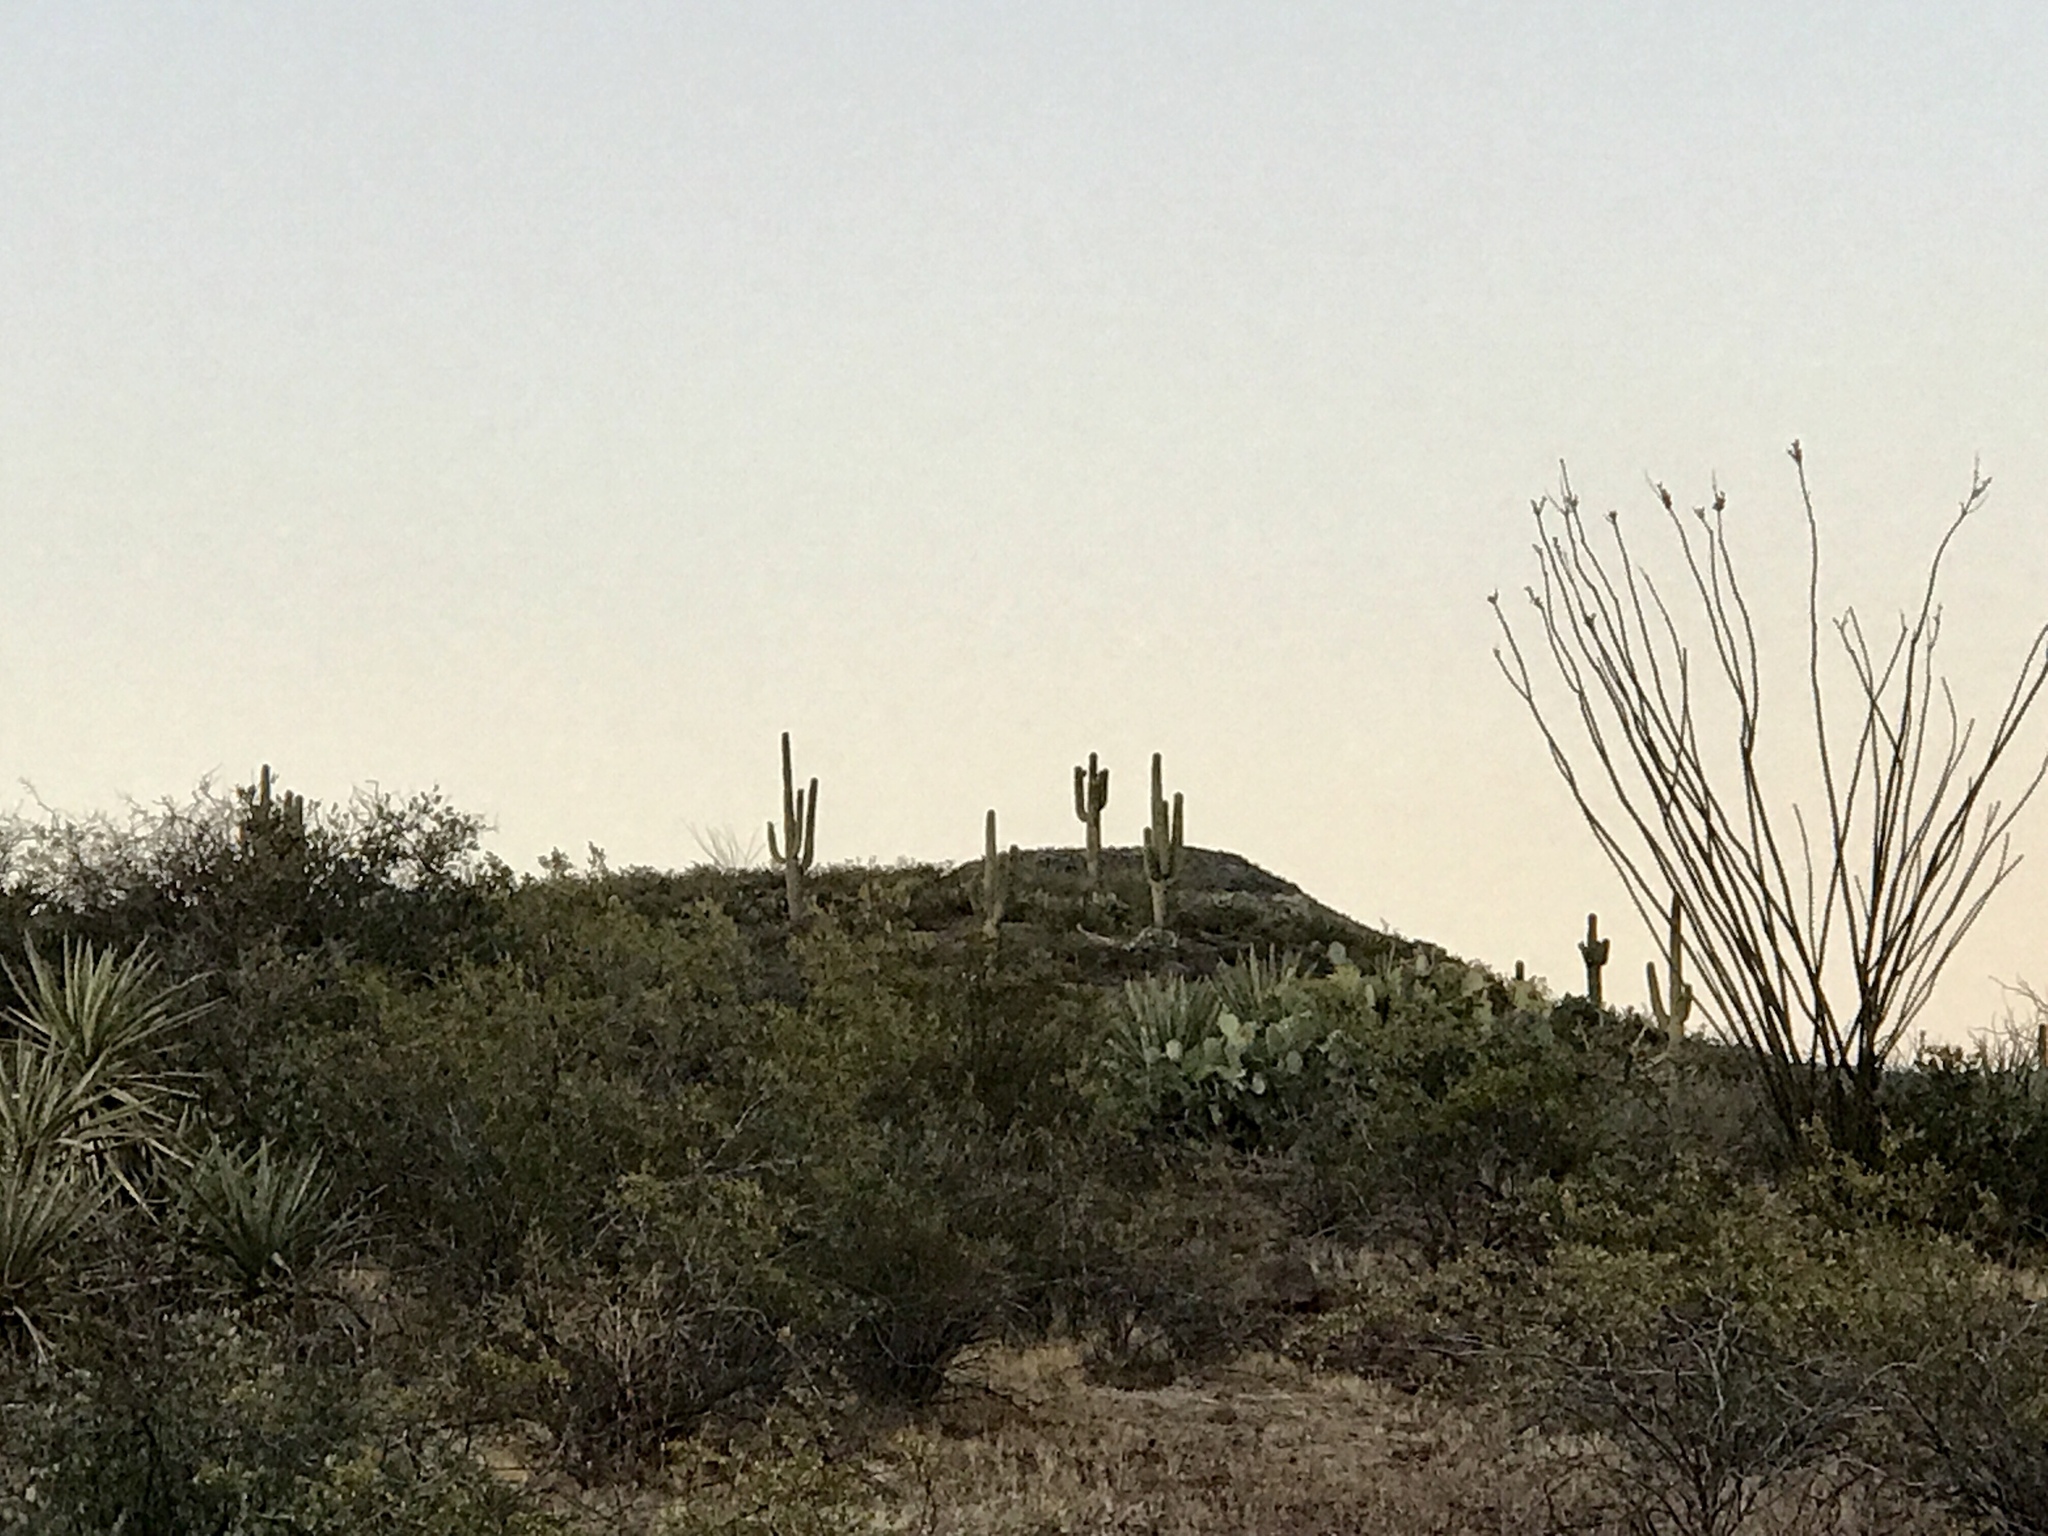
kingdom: Plantae
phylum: Tracheophyta
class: Magnoliopsida
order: Caryophyllales
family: Cactaceae
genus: Carnegiea
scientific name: Carnegiea gigantea
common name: Saguaro
